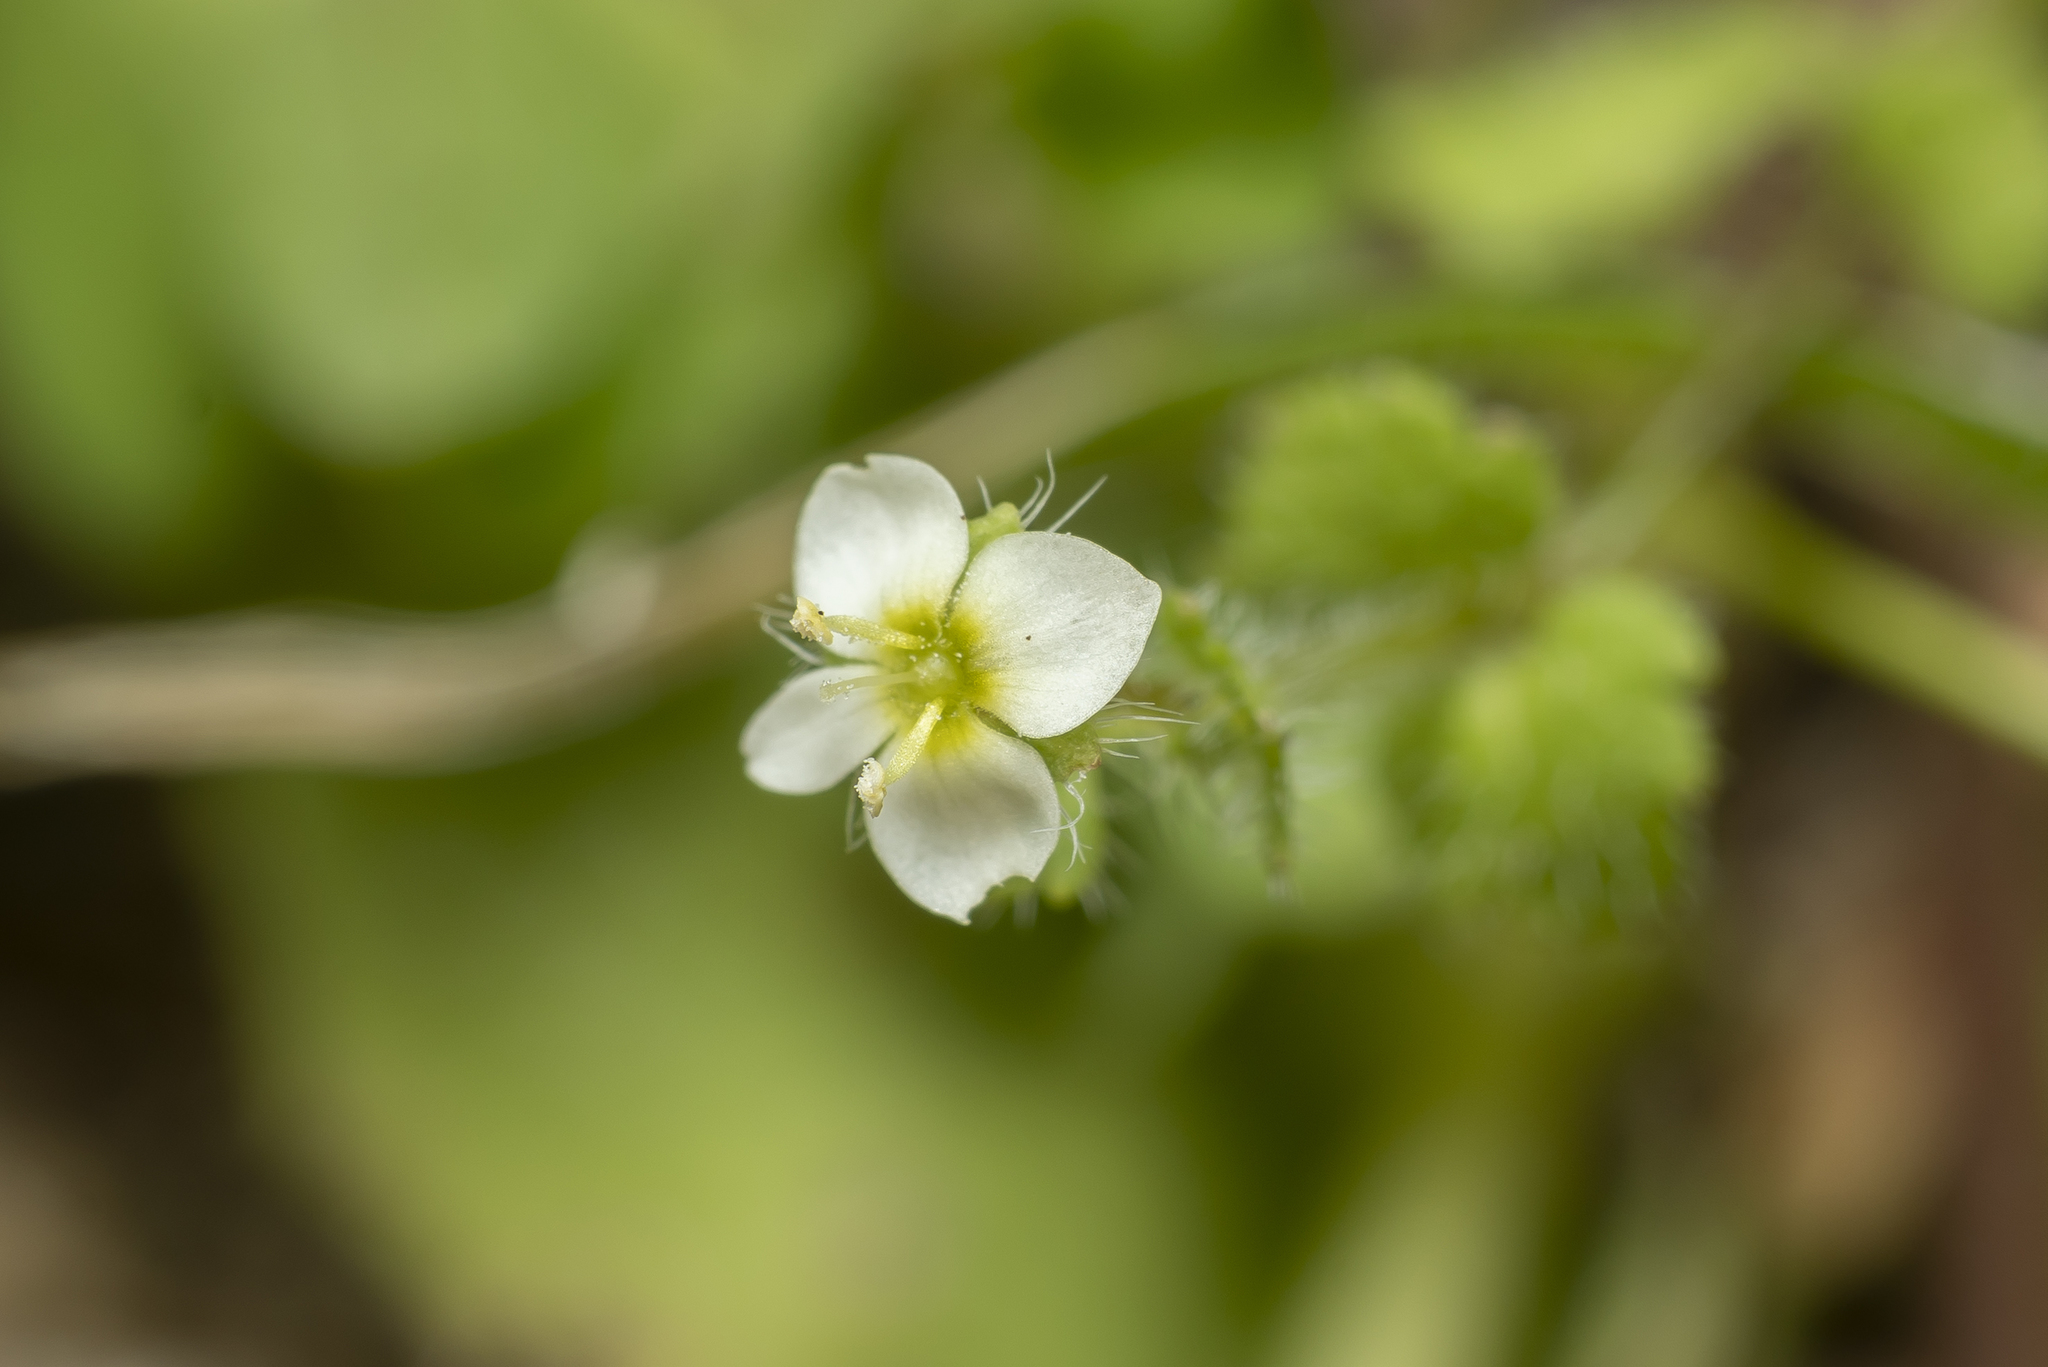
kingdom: Plantae
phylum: Tracheophyta
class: Magnoliopsida
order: Lamiales
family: Plantaginaceae
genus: Veronica
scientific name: Veronica cymbalaria
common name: Pale speedwell
